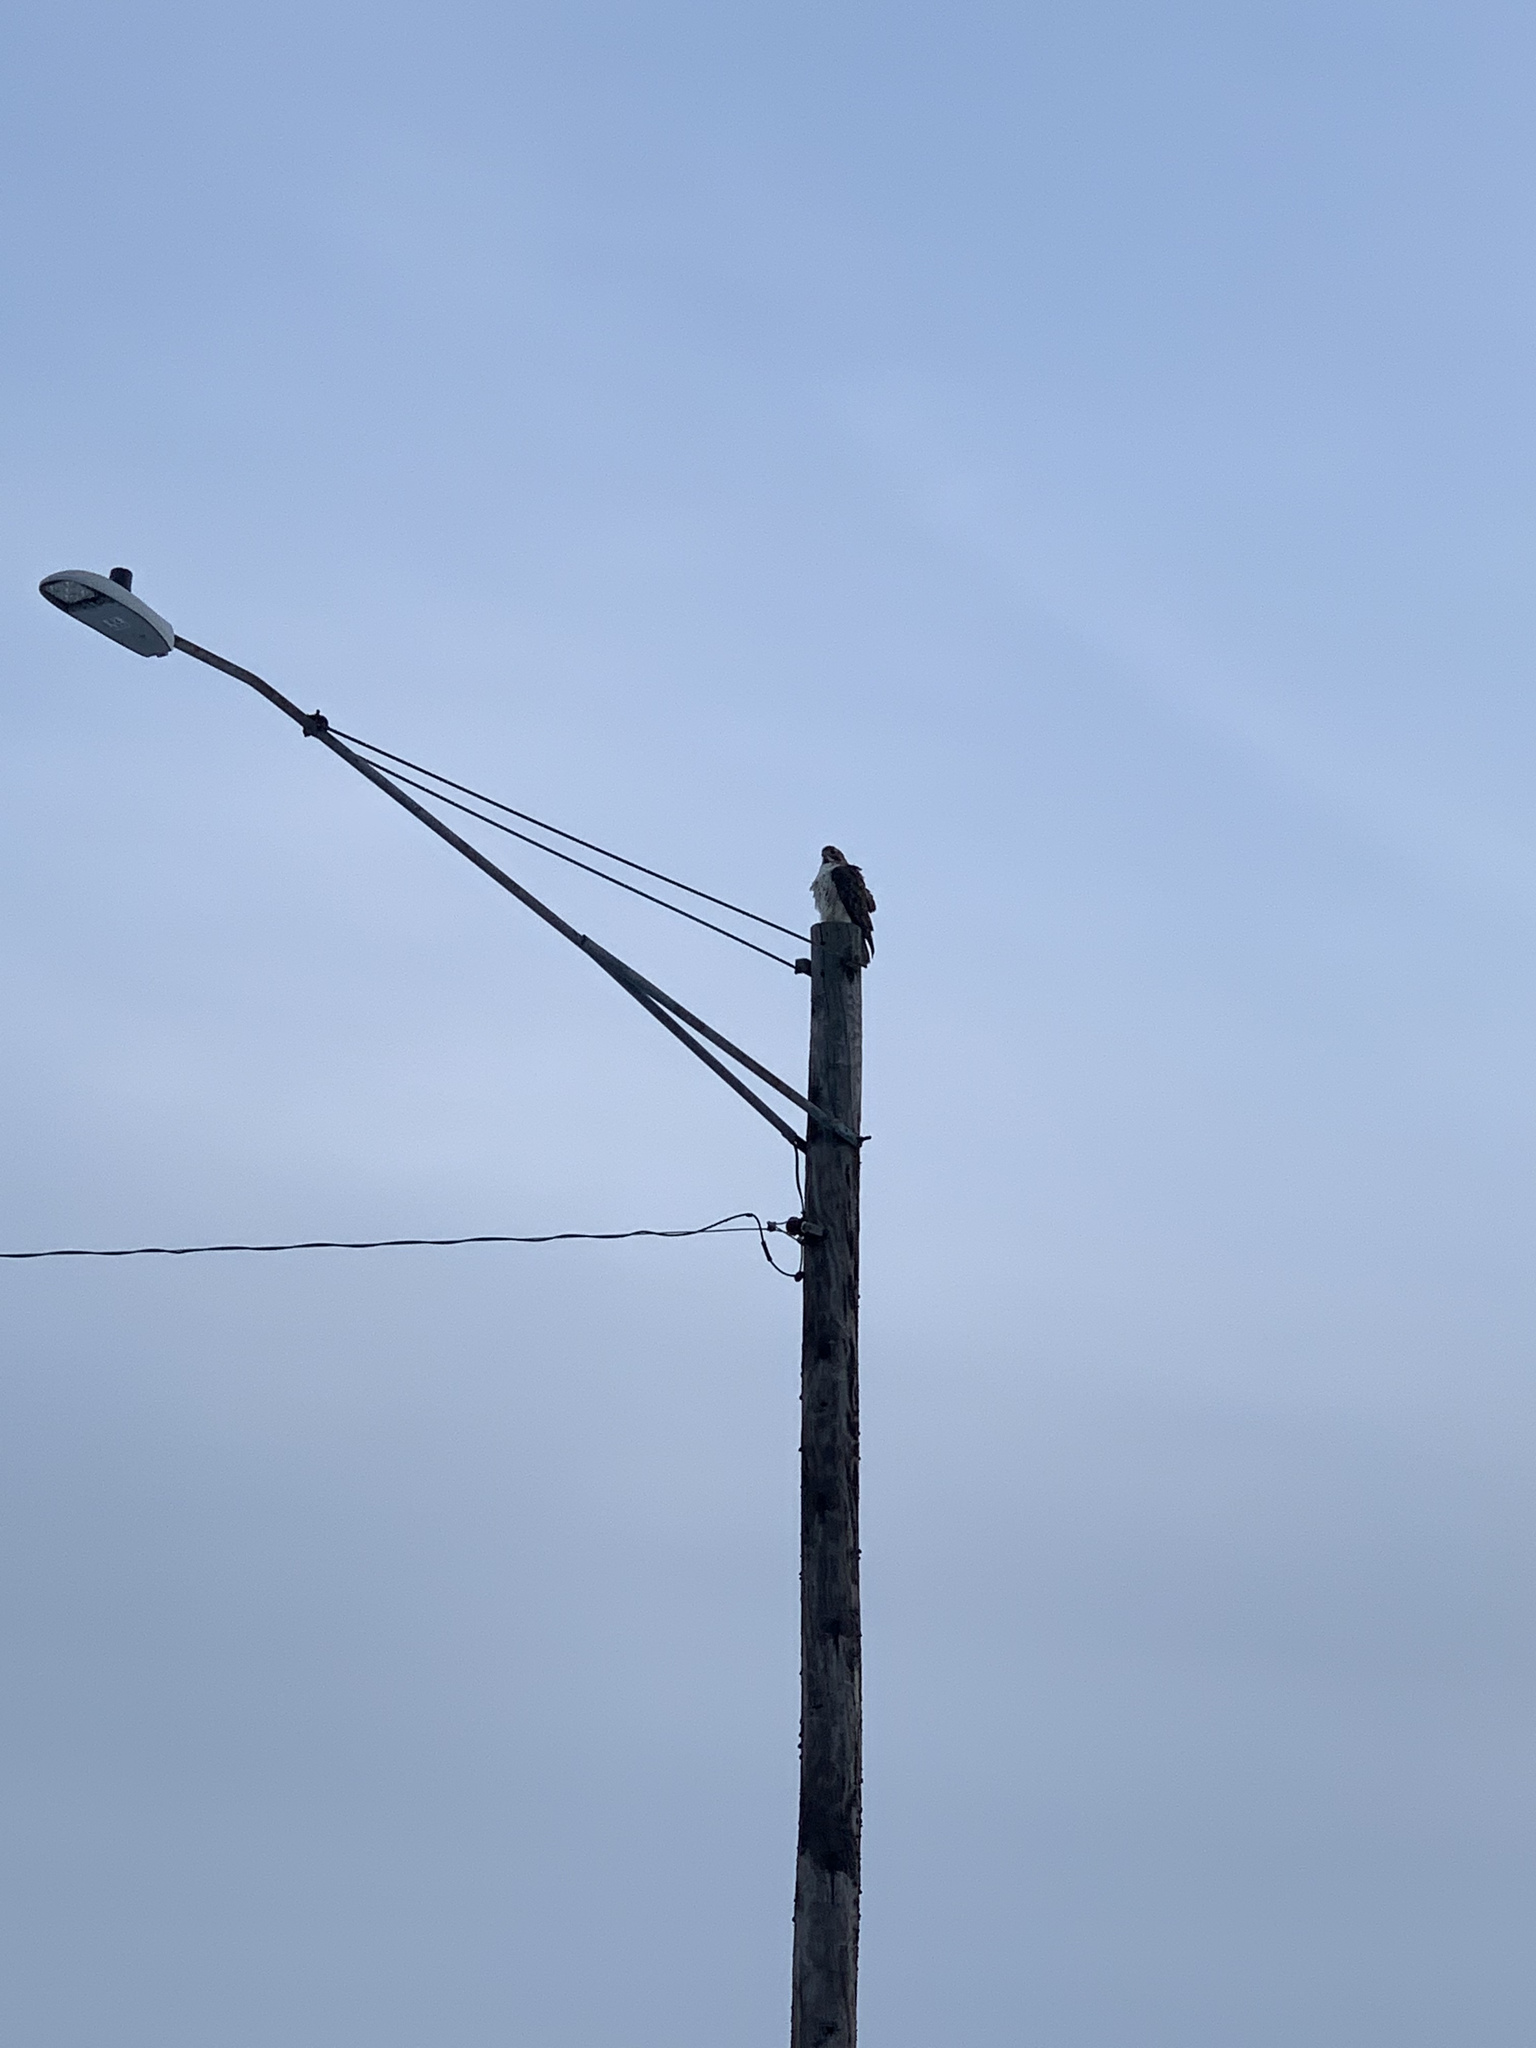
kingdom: Animalia
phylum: Chordata
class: Aves
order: Accipitriformes
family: Accipitridae
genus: Buteo
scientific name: Buteo jamaicensis
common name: Red-tailed hawk
